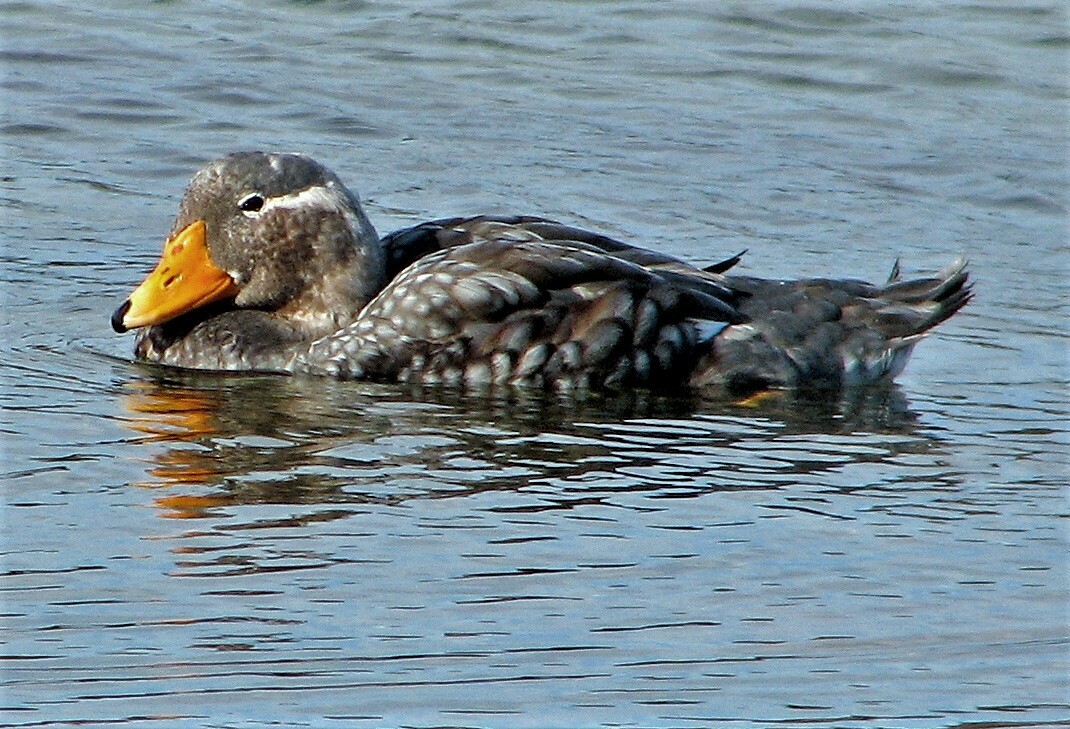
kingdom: Animalia
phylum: Chordata
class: Aves
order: Anseriformes
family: Anatidae
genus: Tachyeres
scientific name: Tachyeres brachypterus
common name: Falkland steamer duck
